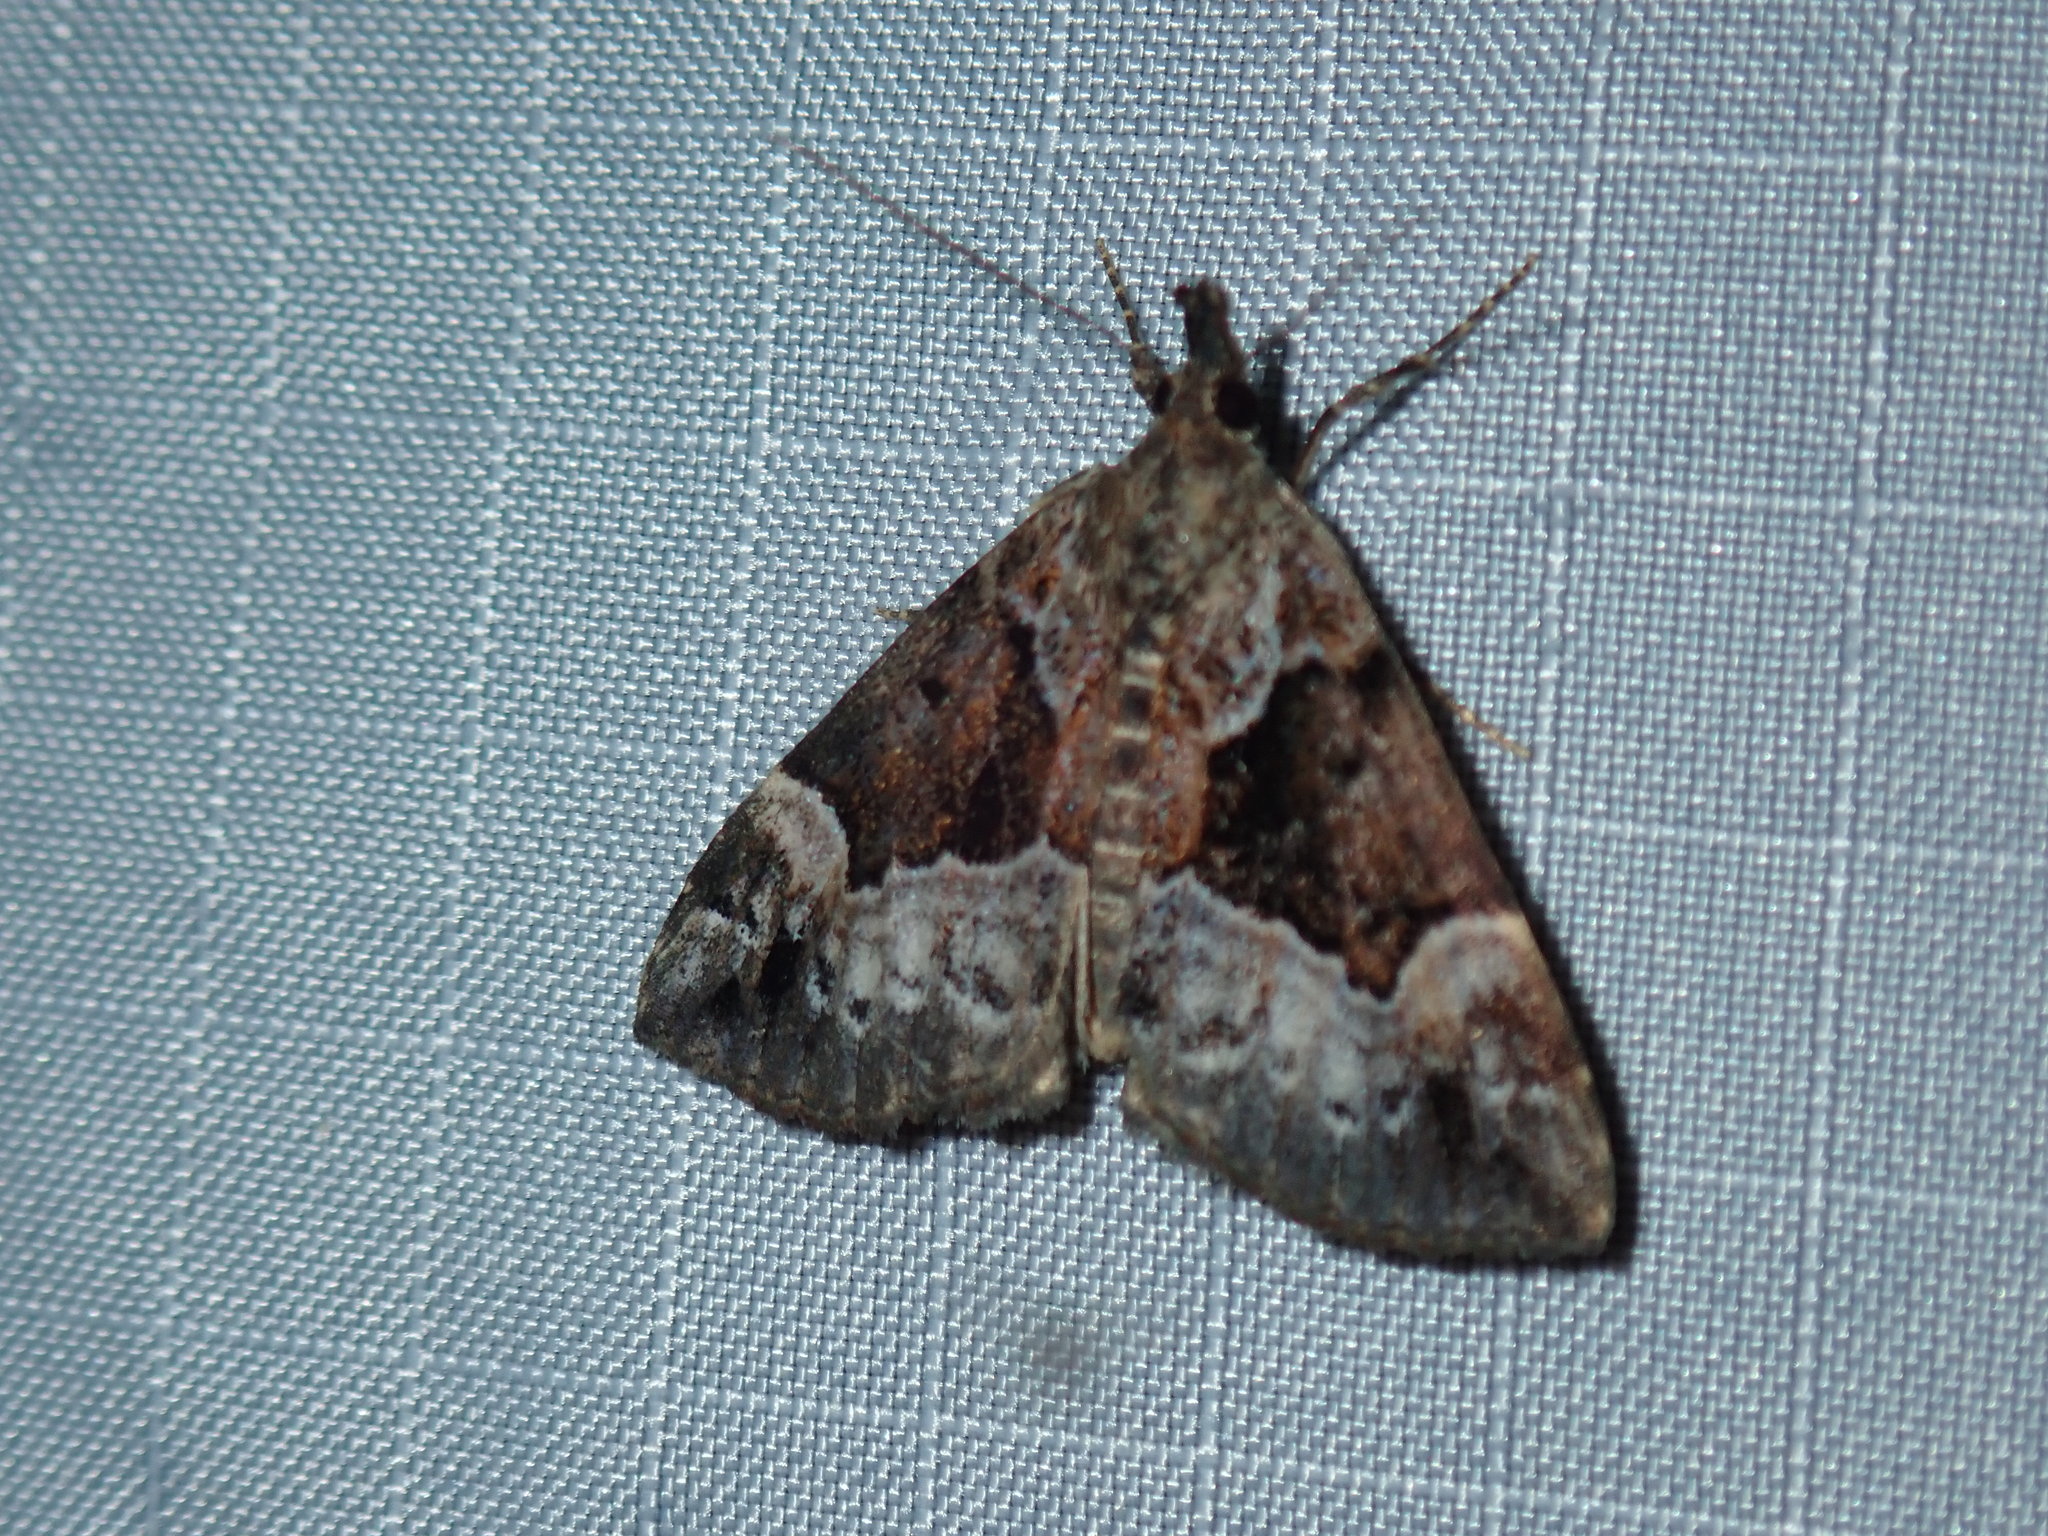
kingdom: Animalia
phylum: Arthropoda
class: Insecta
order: Lepidoptera
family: Erebidae
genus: Hypena
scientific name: Hypena palparia
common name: Mottled bomolocha moth
